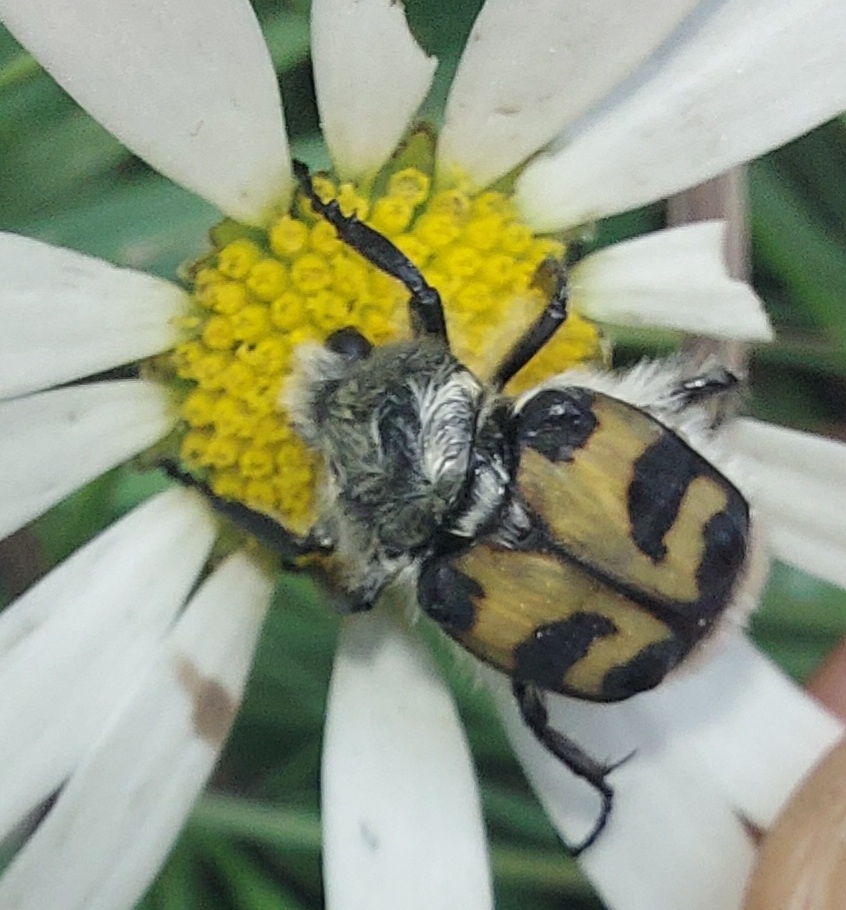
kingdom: Animalia
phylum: Arthropoda
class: Insecta
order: Coleoptera
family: Scarabaeidae
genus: Trichius
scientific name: Trichius fasciatus
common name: Bee beetle
